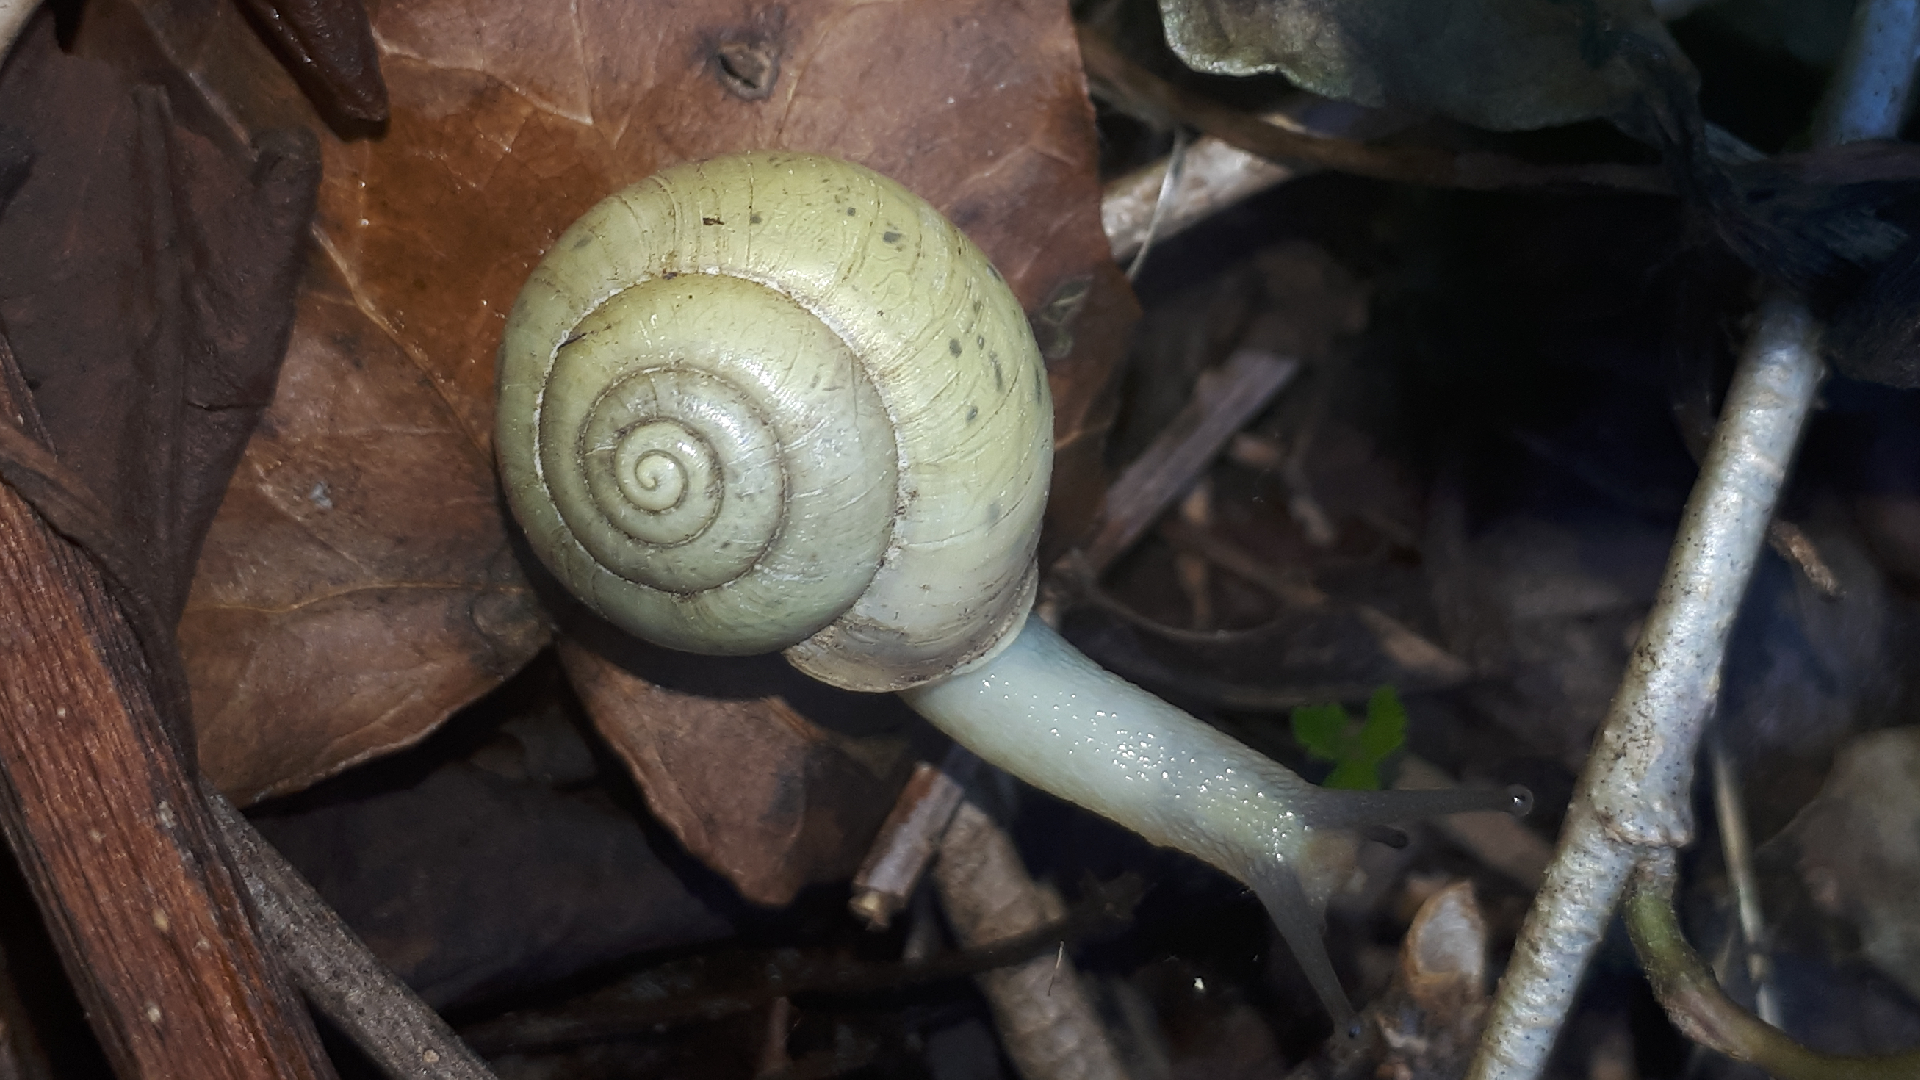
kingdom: Animalia
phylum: Mollusca
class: Gastropoda
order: Stylommatophora
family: Camaenidae
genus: Fruticicola
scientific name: Fruticicola fruticum
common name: Bush snail
